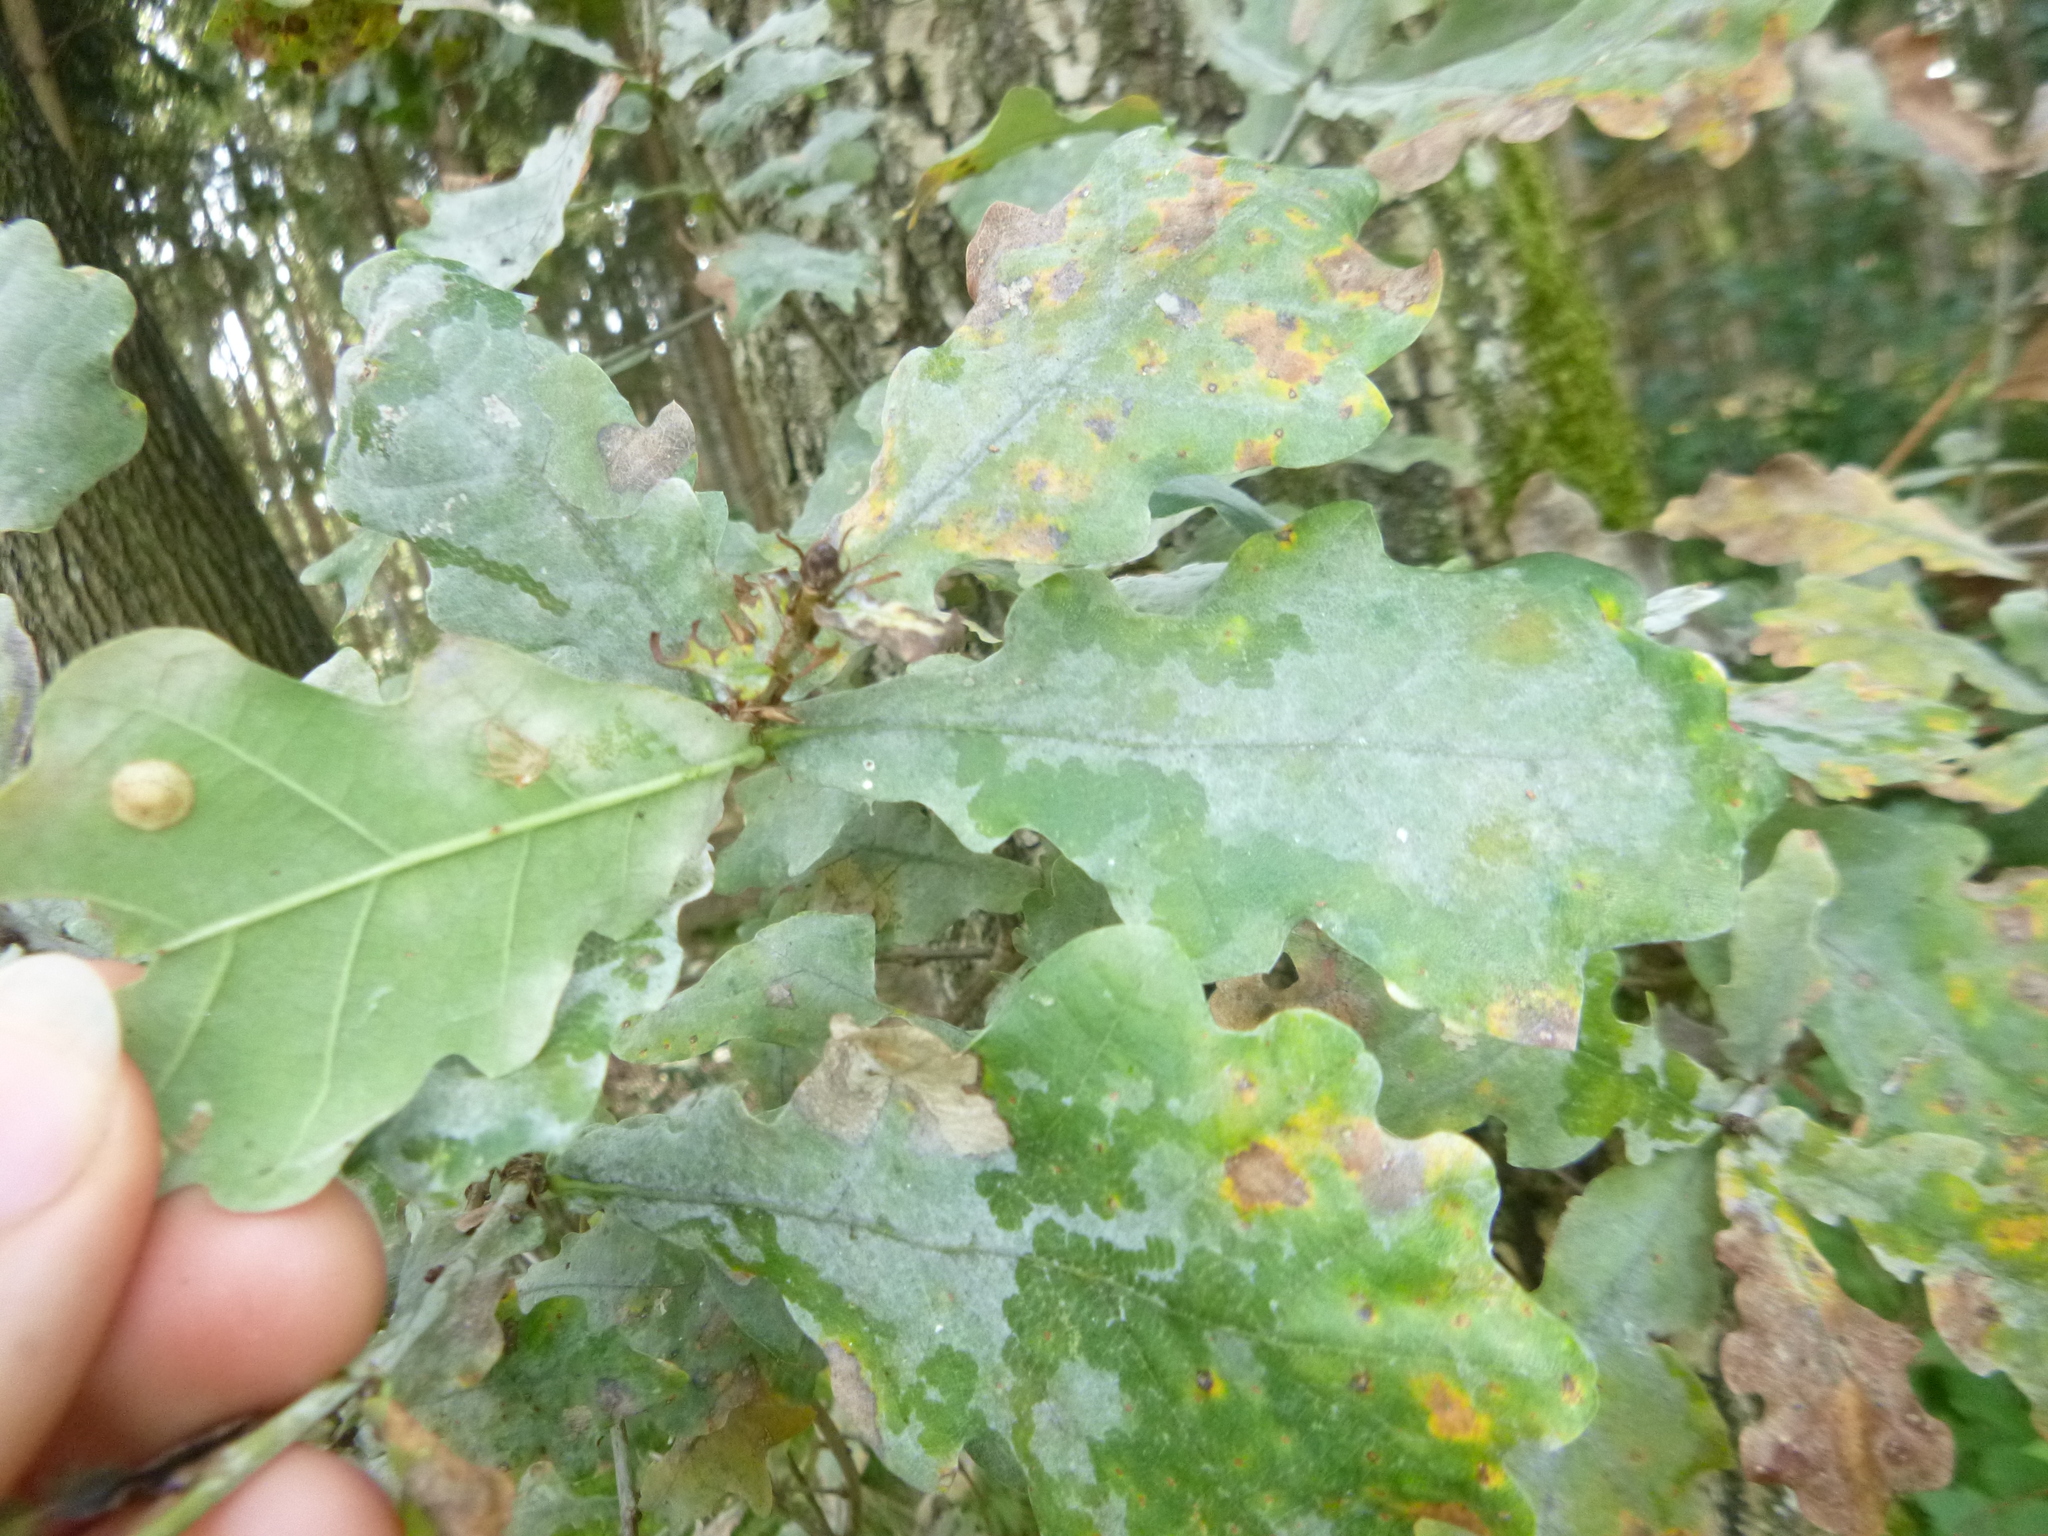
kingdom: Fungi
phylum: Ascomycota
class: Leotiomycetes
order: Helotiales
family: Erysiphaceae
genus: Erysiphe
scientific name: Erysiphe
